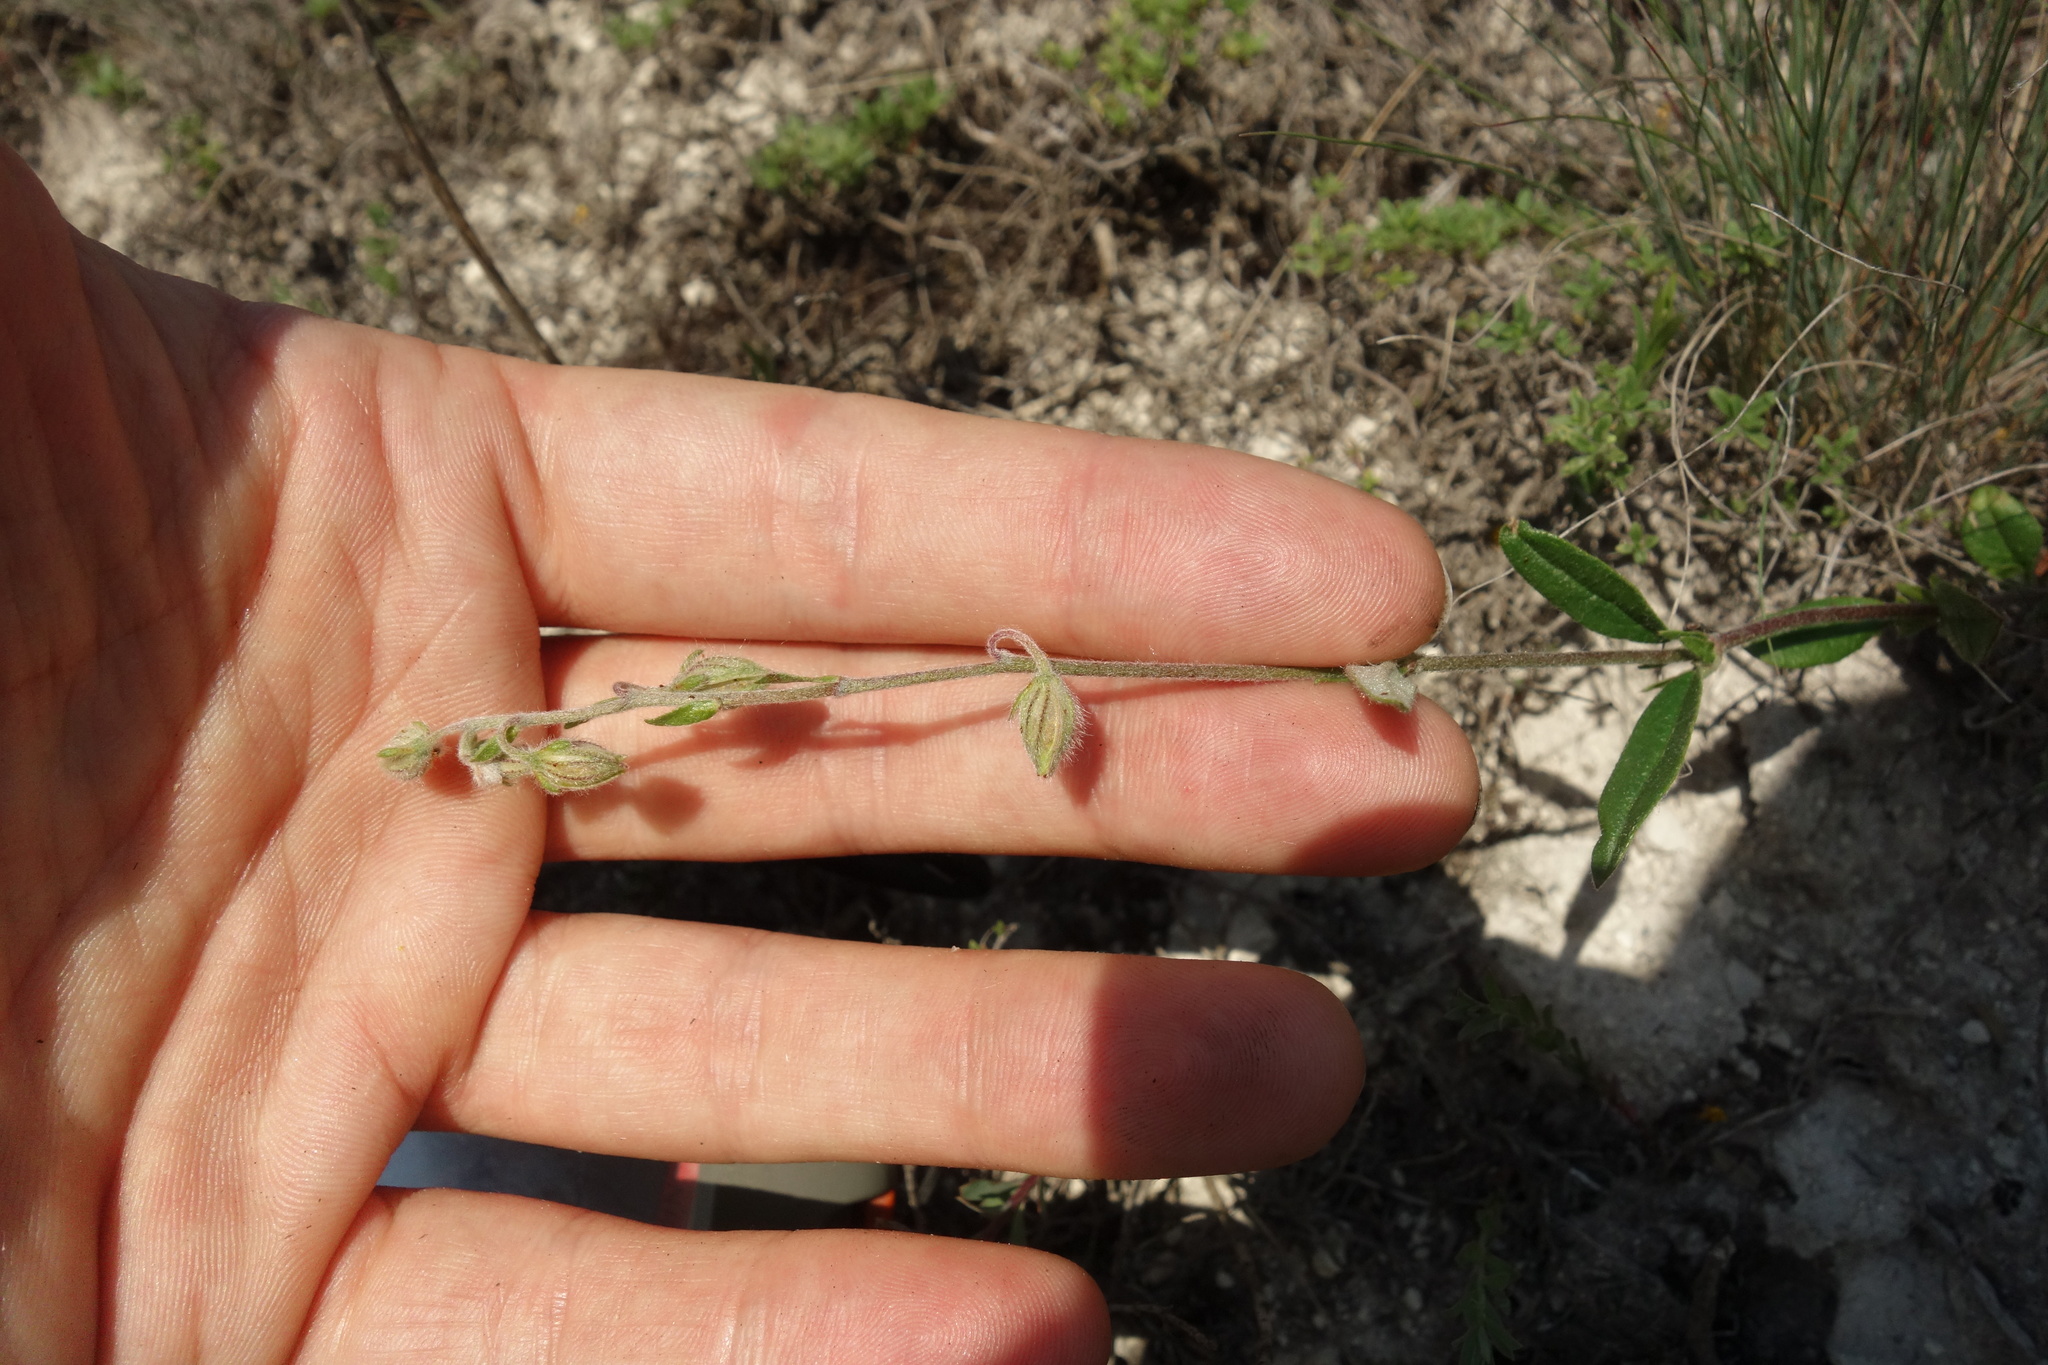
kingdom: Plantae
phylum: Tracheophyta
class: Magnoliopsida
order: Malvales
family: Cistaceae
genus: Helianthemum
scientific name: Helianthemum nummularium
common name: Common rock-rose
